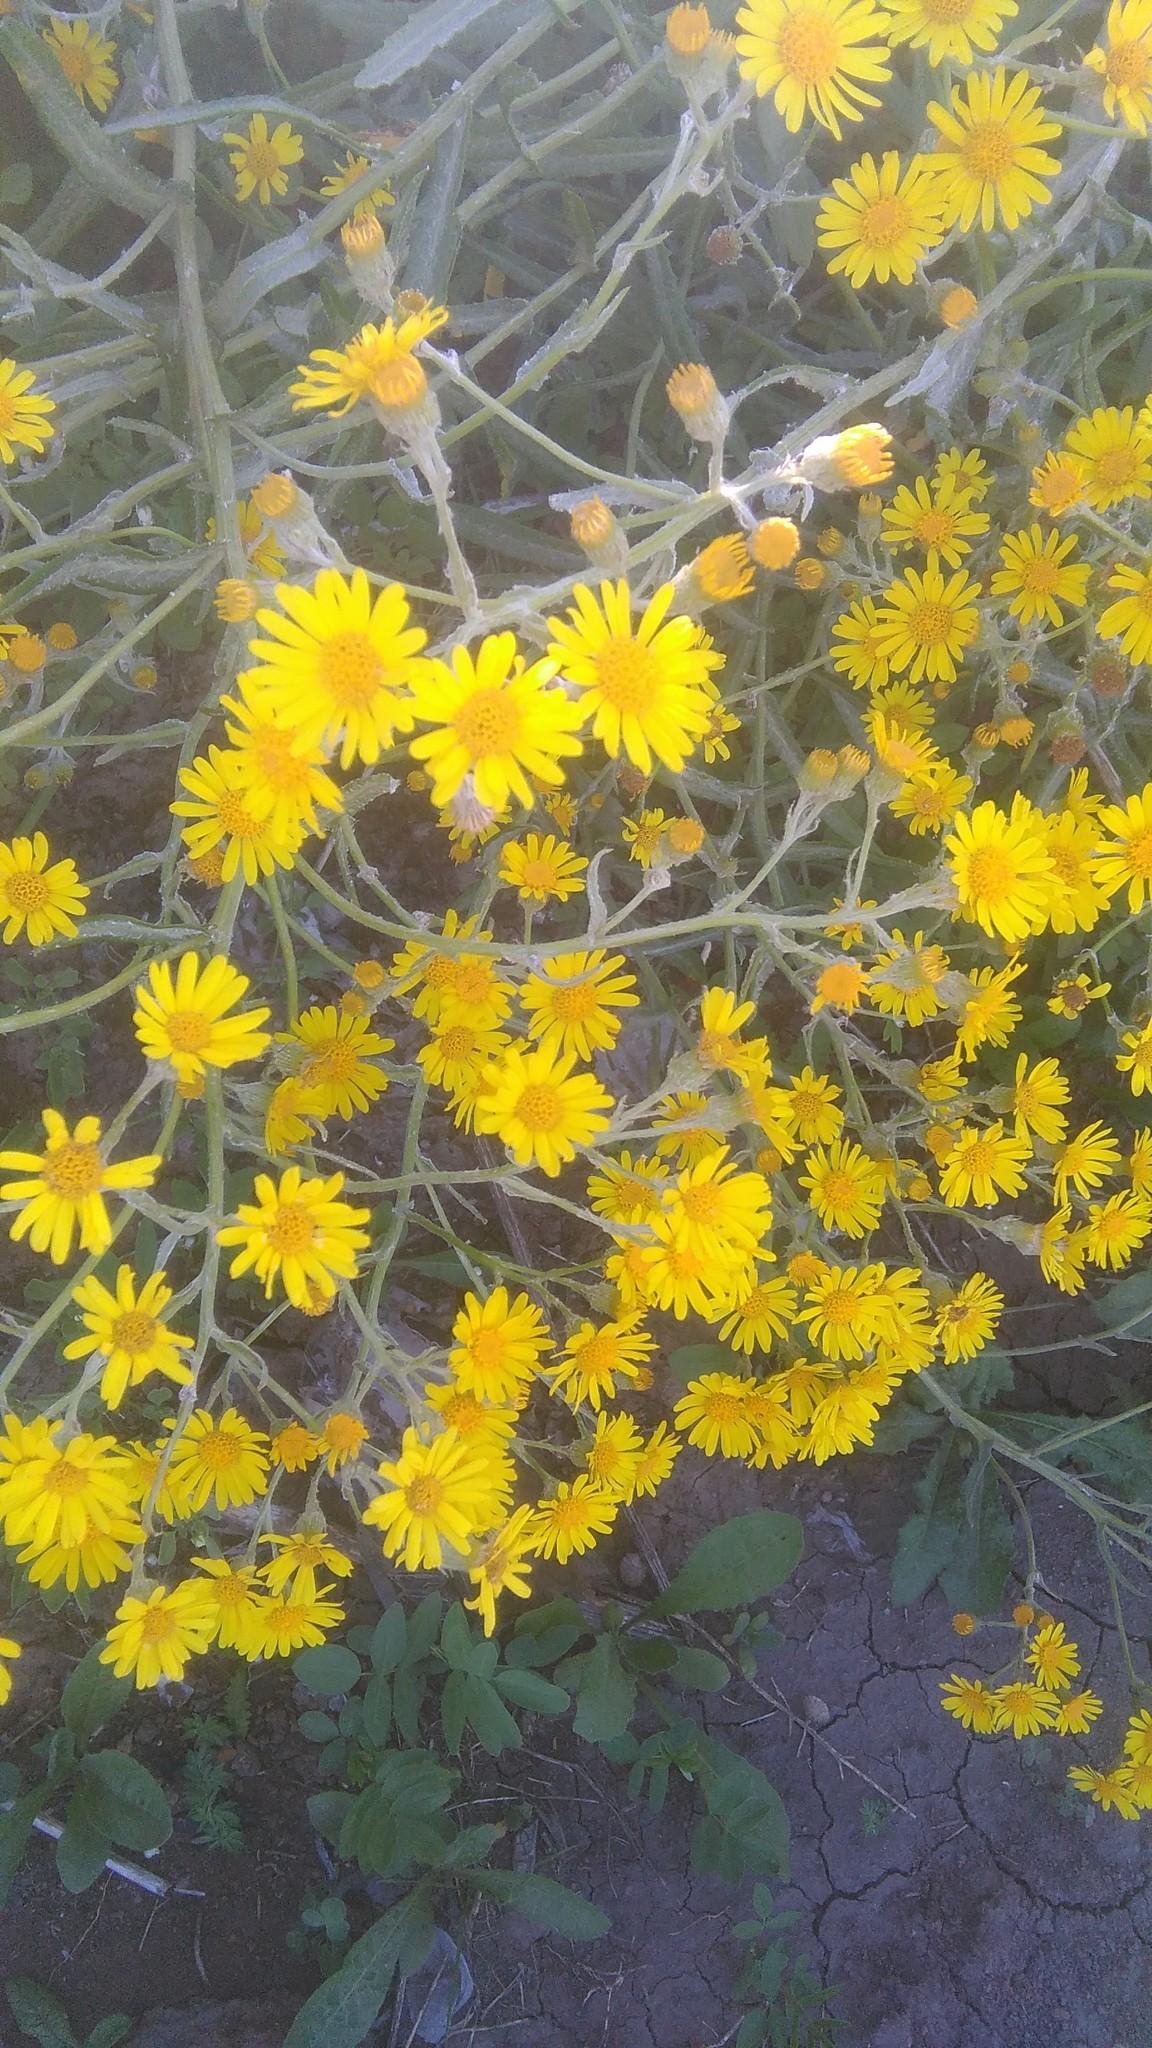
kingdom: Plantae
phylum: Tracheophyta
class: Magnoliopsida
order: Asterales
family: Asteraceae
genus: Senecio
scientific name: Senecio pterophorus
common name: Shoddy ragwort
